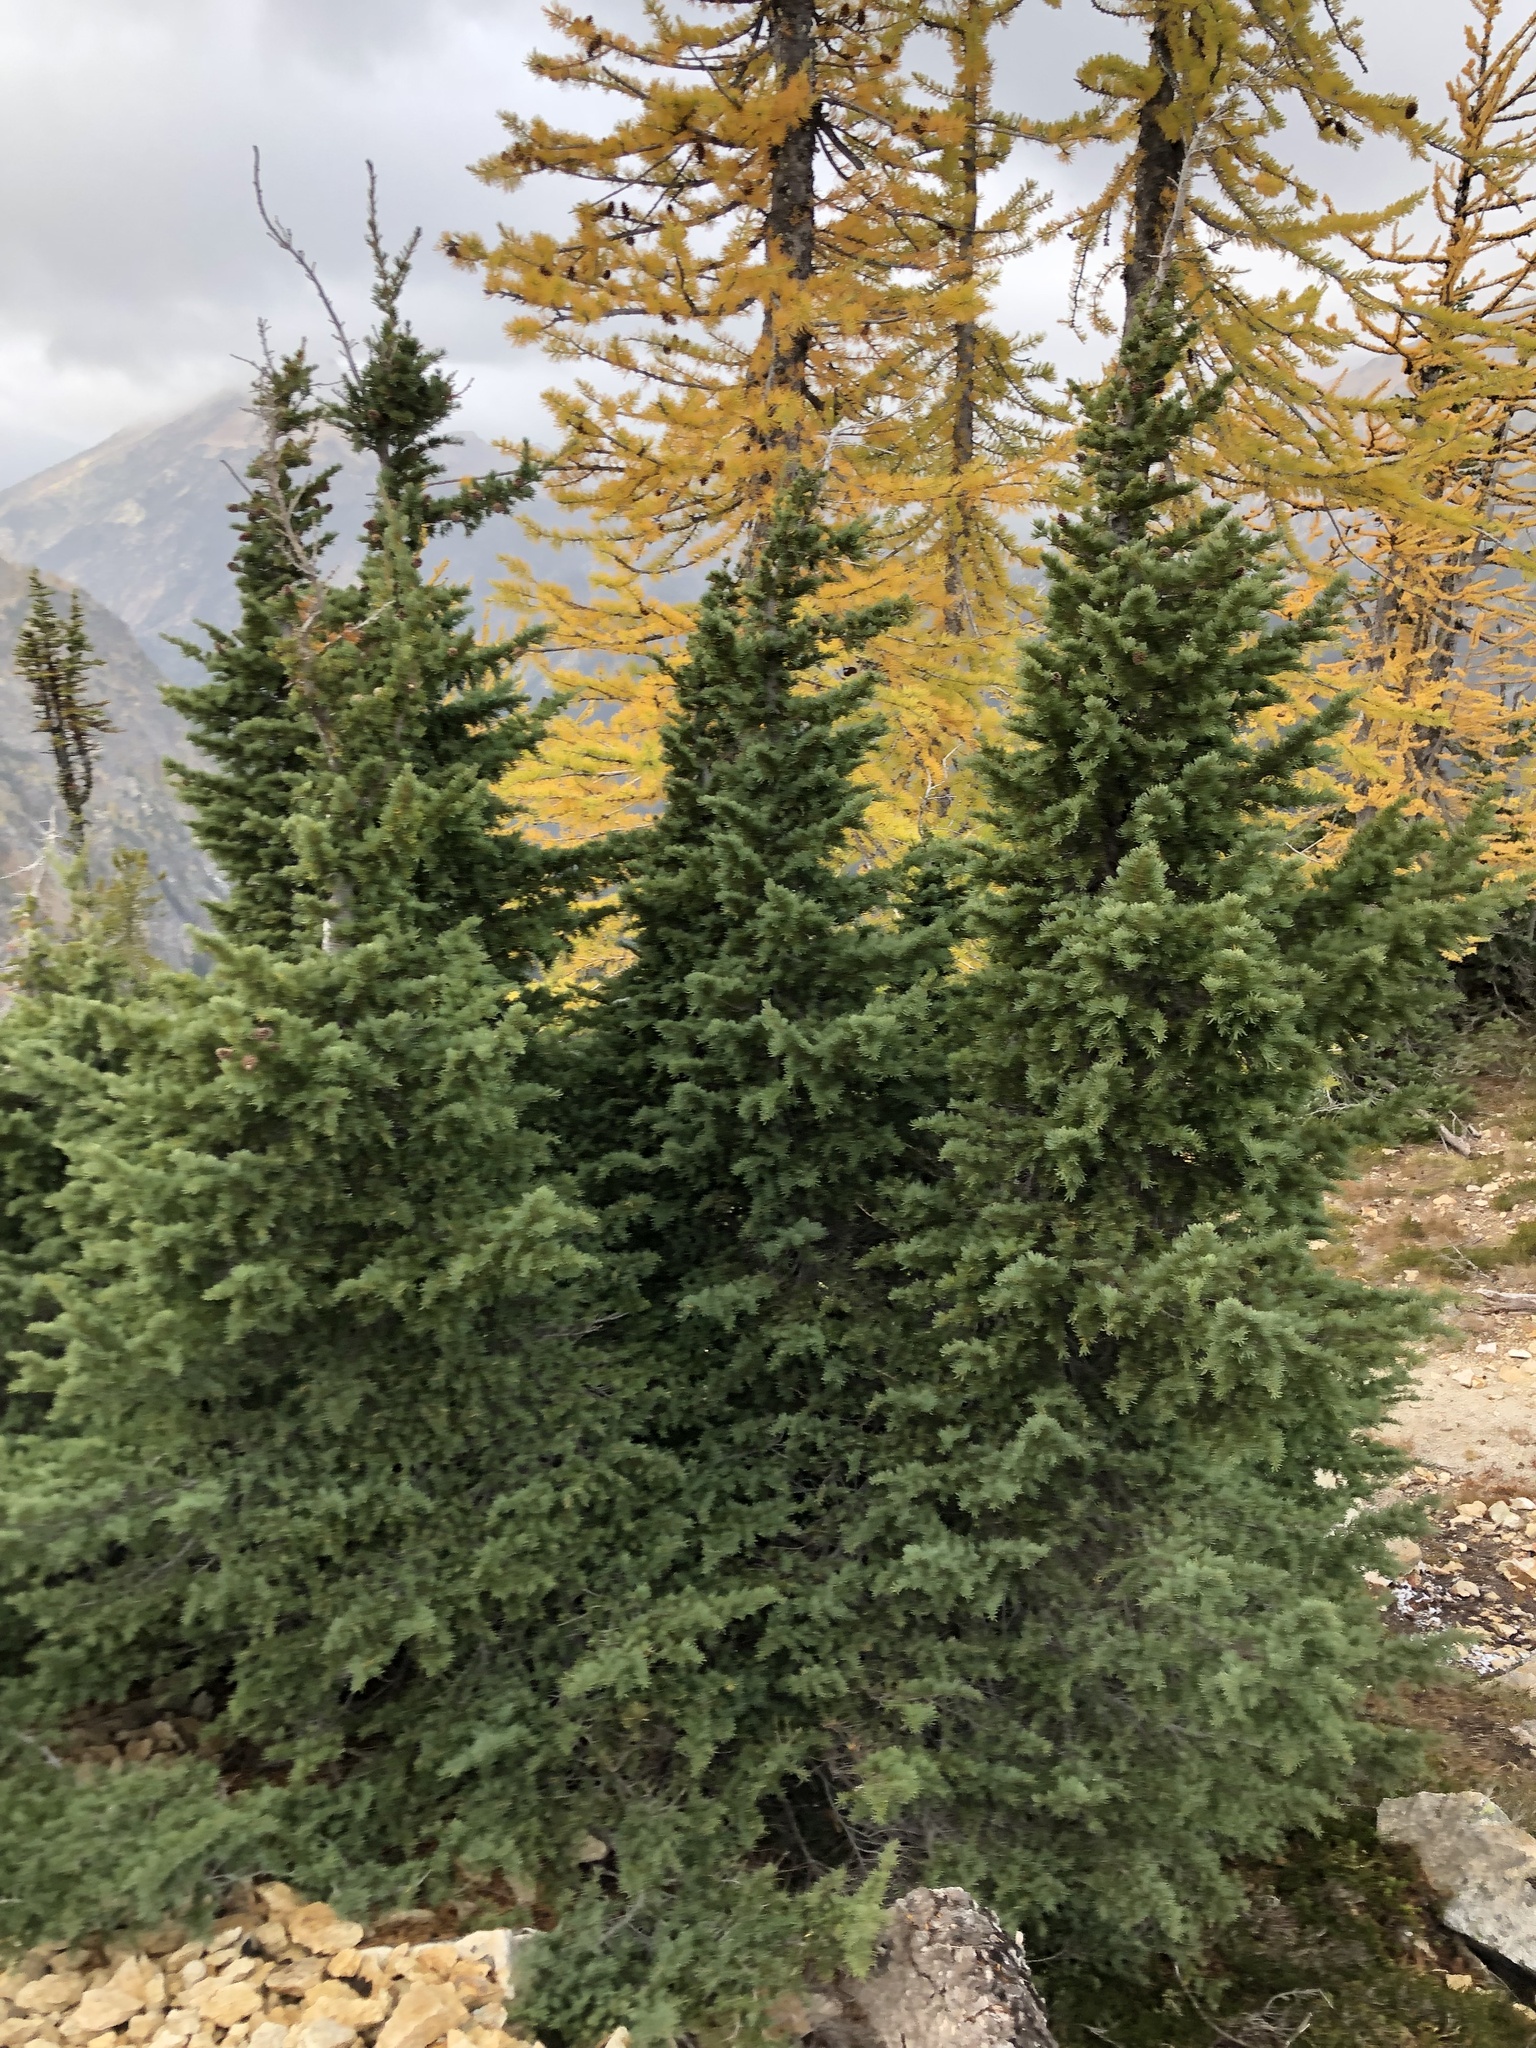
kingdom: Plantae
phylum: Tracheophyta
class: Pinopsida
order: Pinales
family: Pinaceae
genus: Tsuga
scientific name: Tsuga mertensiana
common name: Mountain hemlock
